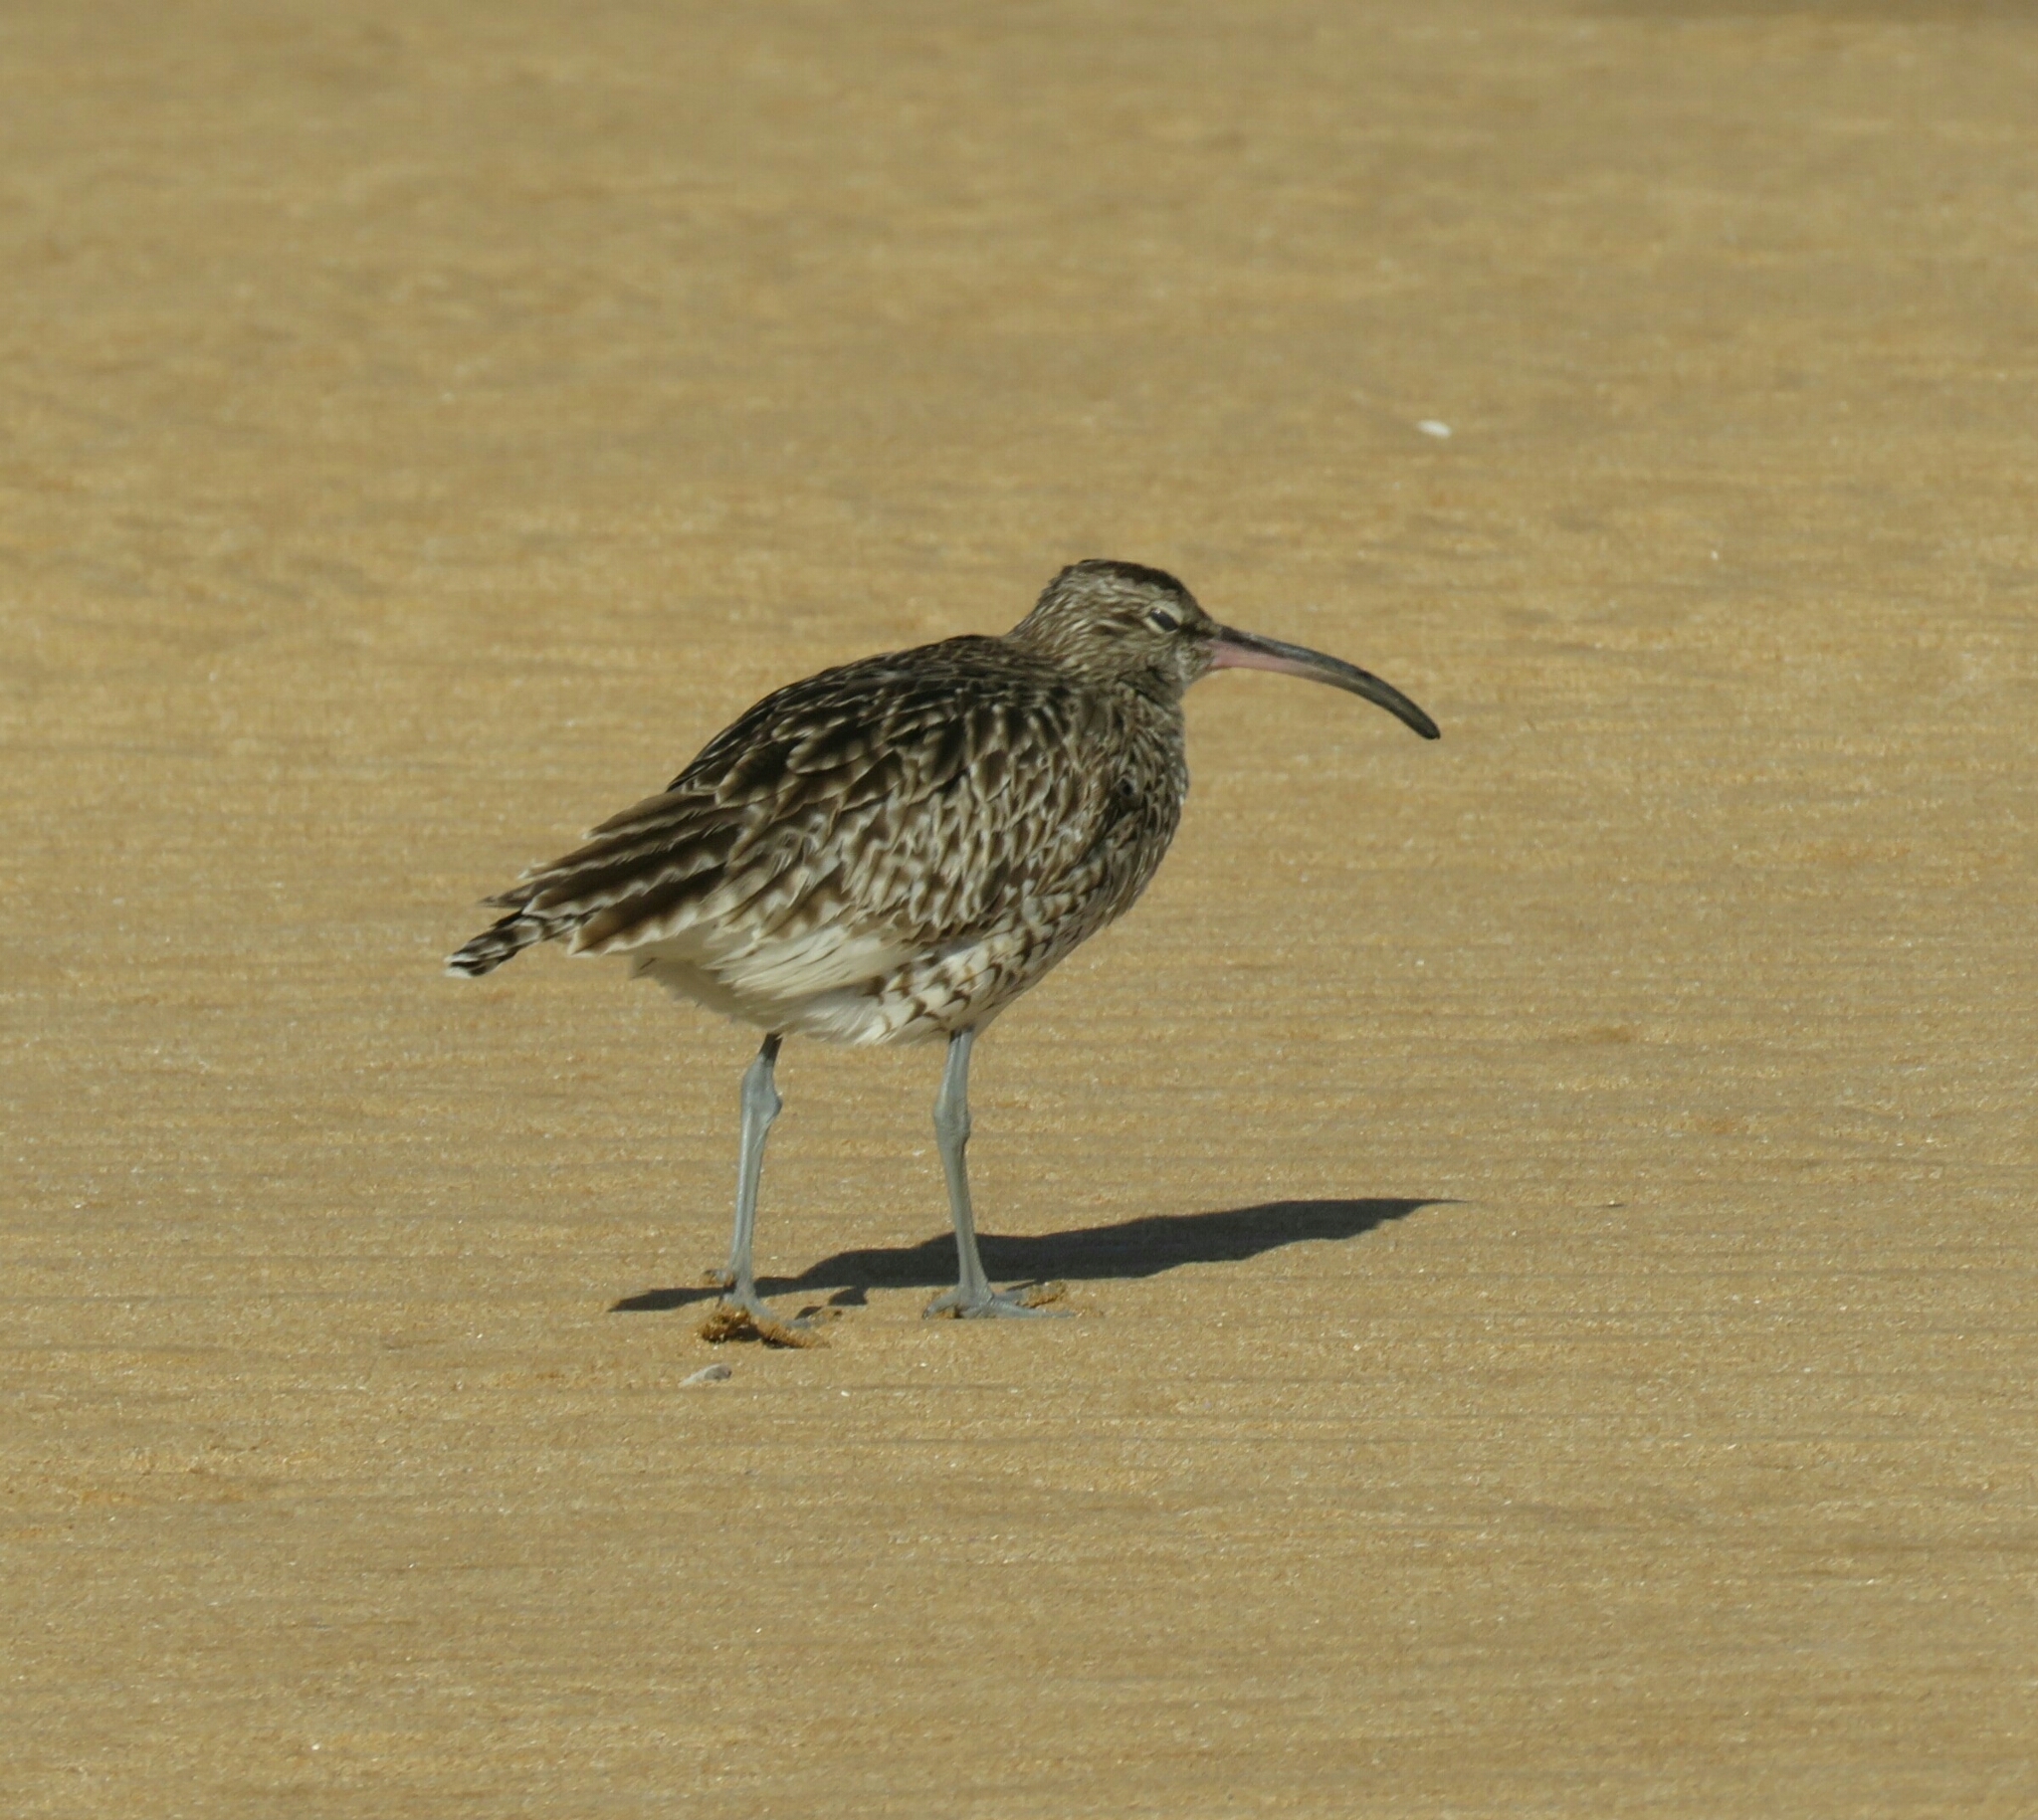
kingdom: Animalia
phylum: Chordata
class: Aves
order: Charadriiformes
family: Scolopacidae
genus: Numenius
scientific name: Numenius phaeopus
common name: Whimbrel
